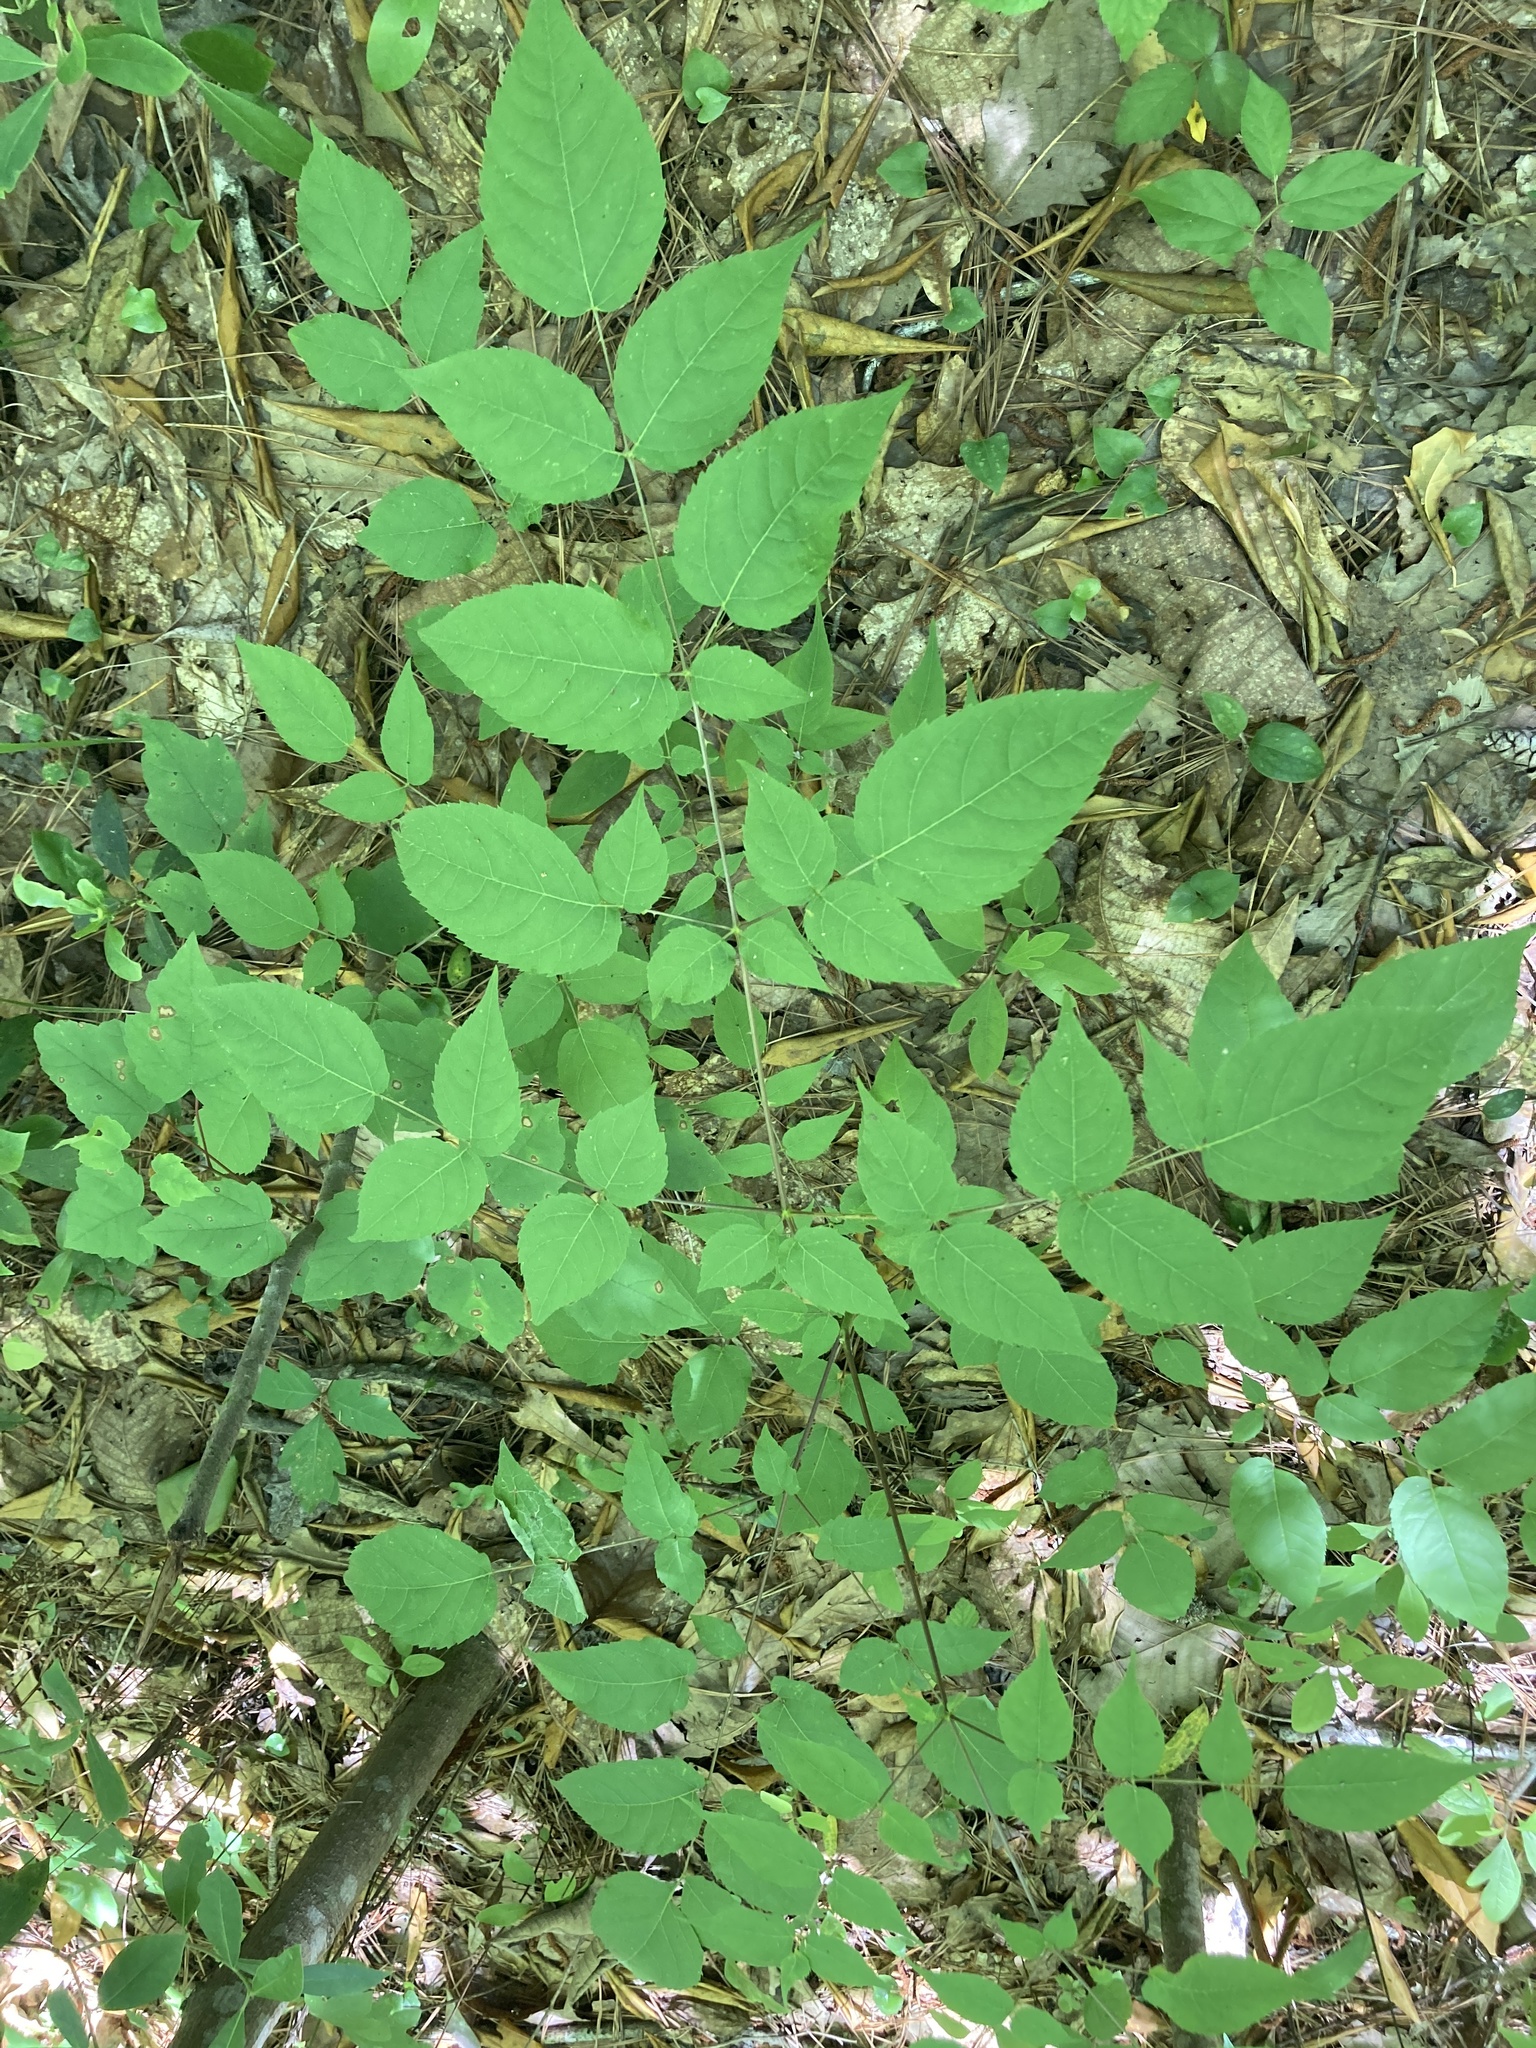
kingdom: Plantae
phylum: Tracheophyta
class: Magnoliopsida
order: Apiales
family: Araliaceae
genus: Aralia
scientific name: Aralia spinosa
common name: Hercules'-club
